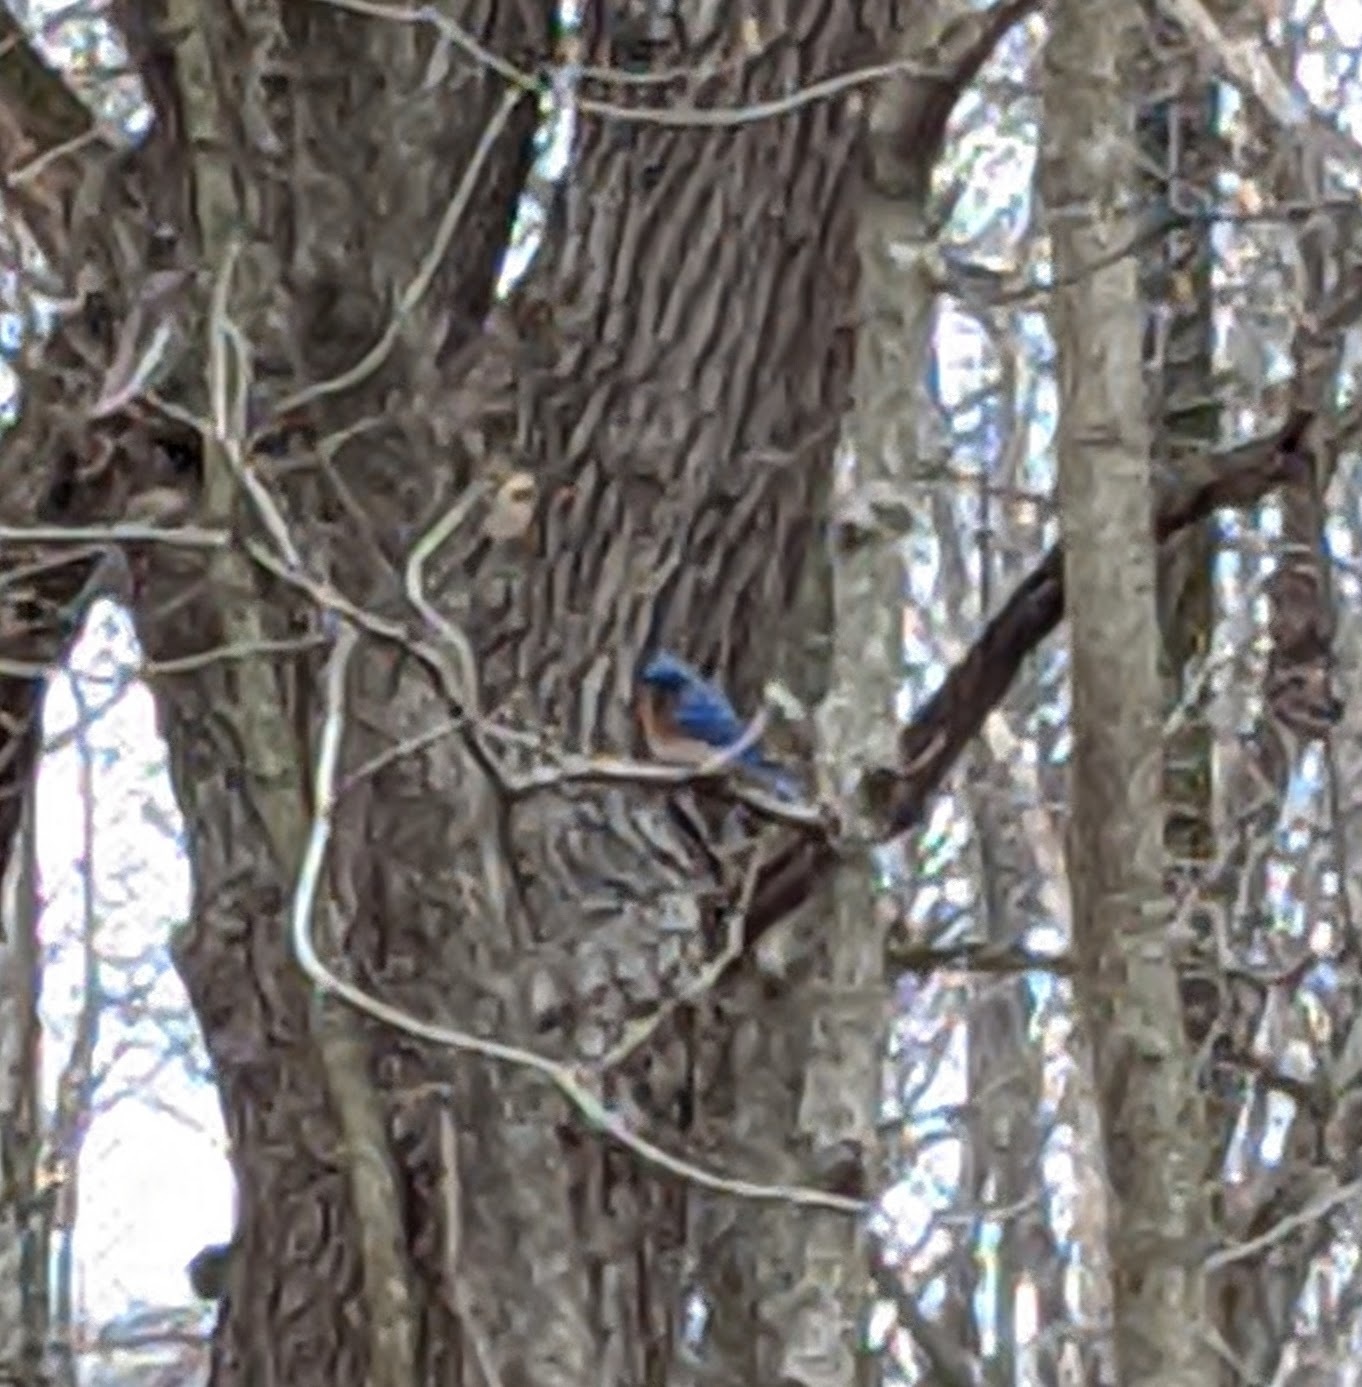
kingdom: Animalia
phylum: Chordata
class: Aves
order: Passeriformes
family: Turdidae
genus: Sialia
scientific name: Sialia sialis
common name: Eastern bluebird
